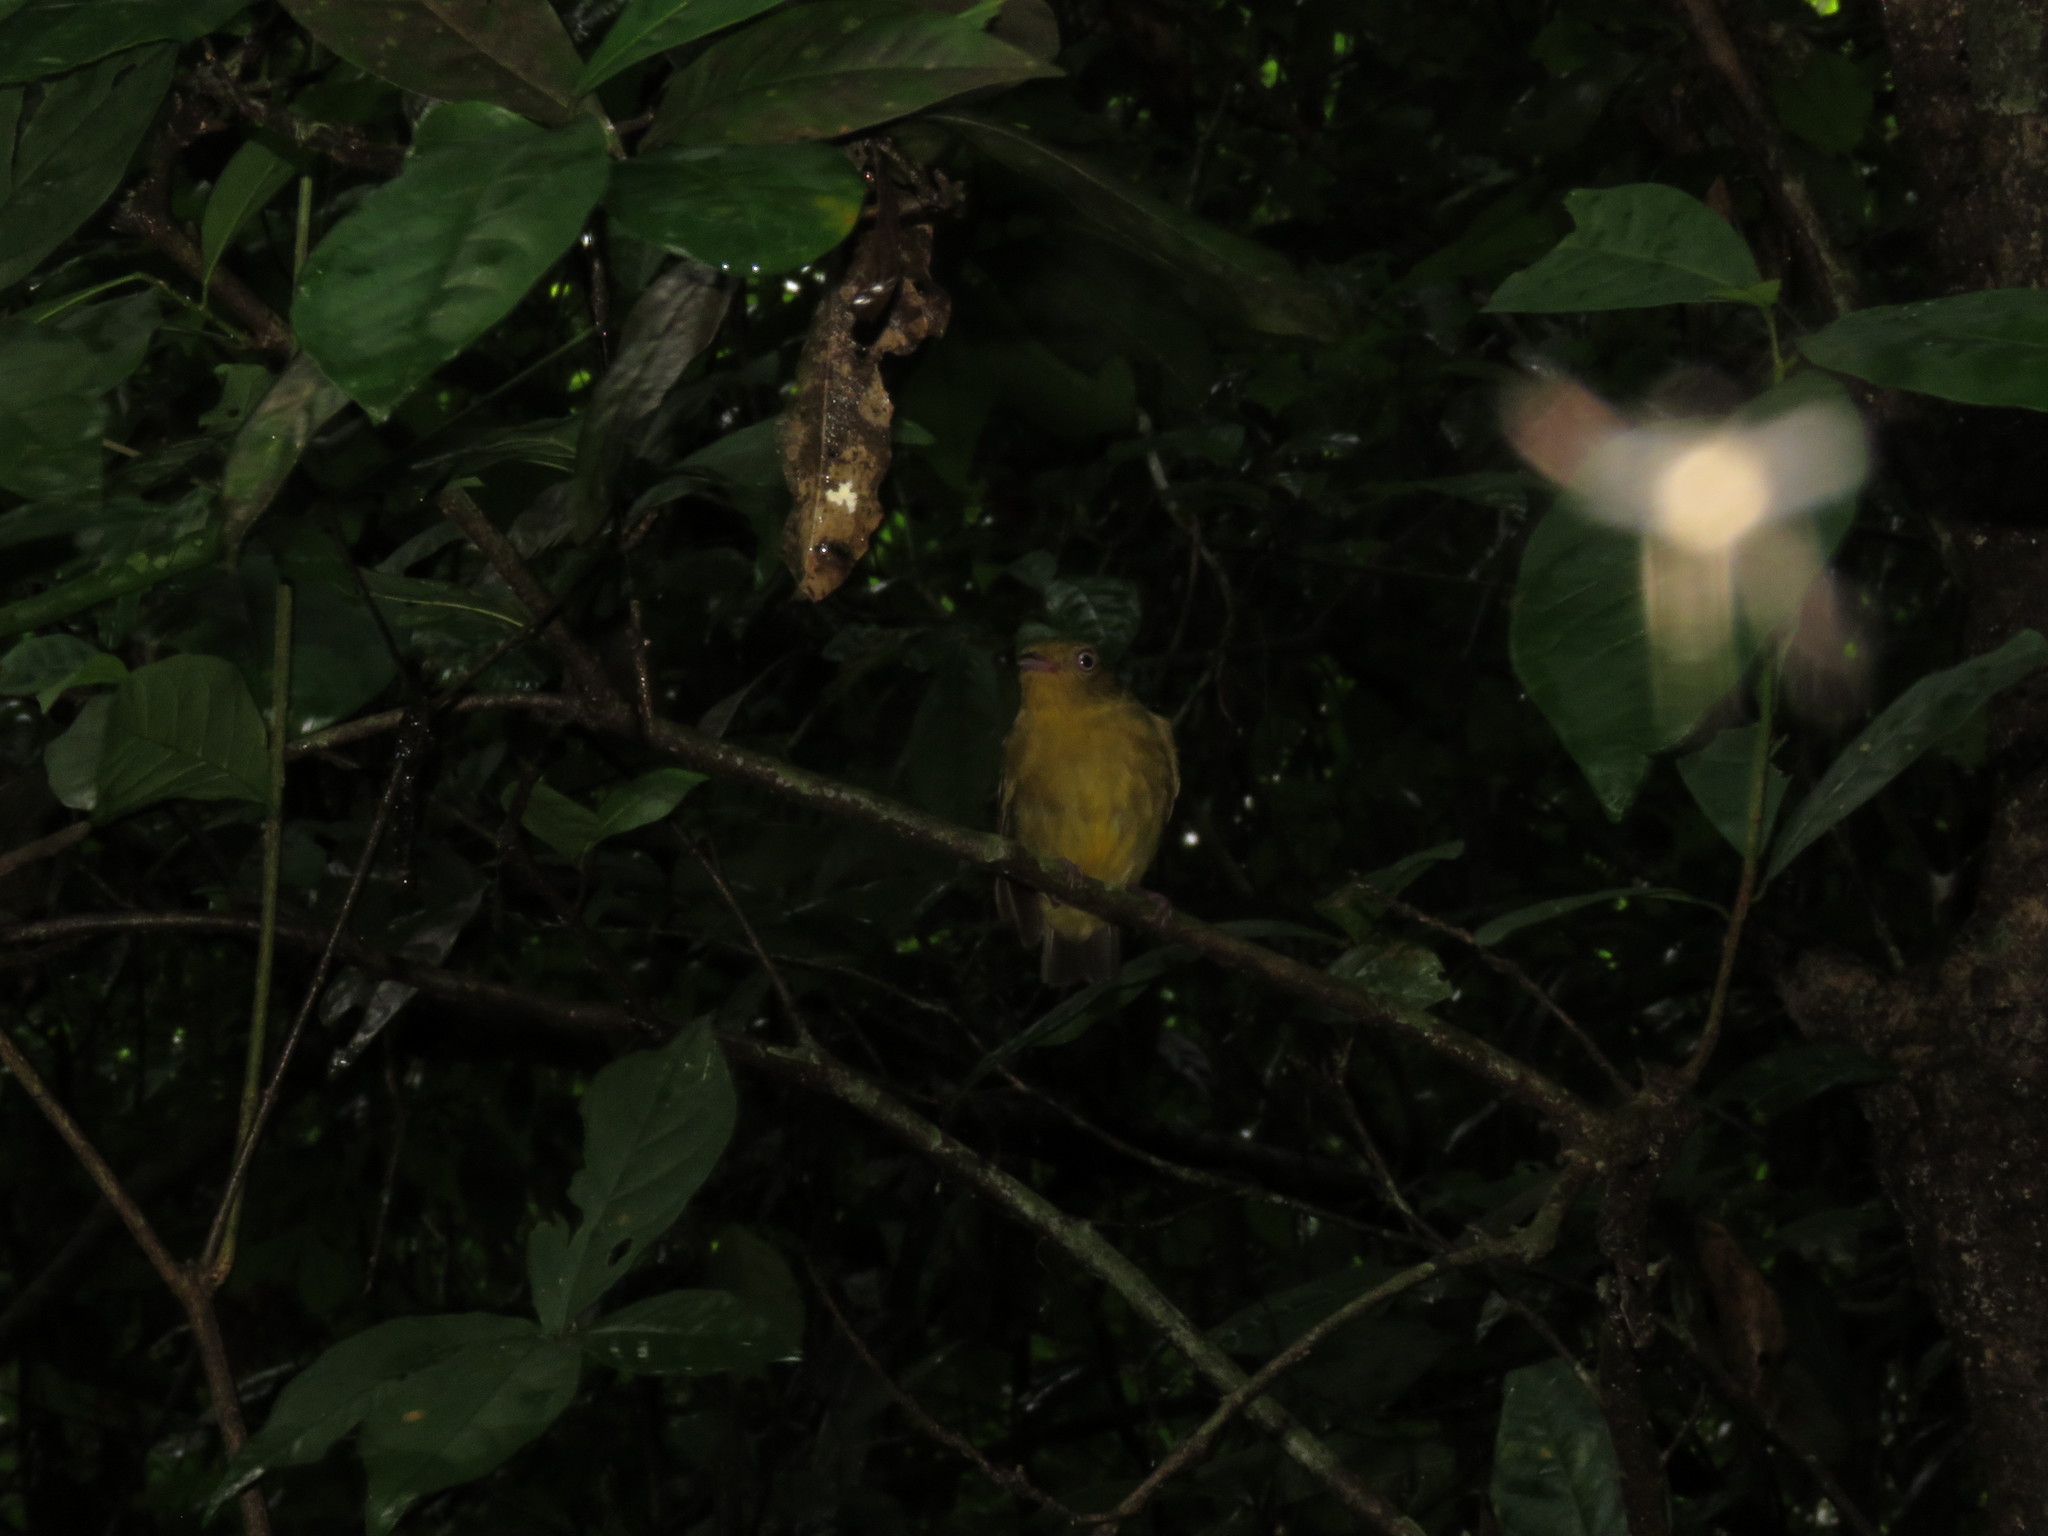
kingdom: Animalia
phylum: Chordata
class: Aves
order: Passeriformes
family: Pipridae
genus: Pipra
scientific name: Pipra fasciicauda
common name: Band-tailed manakin
